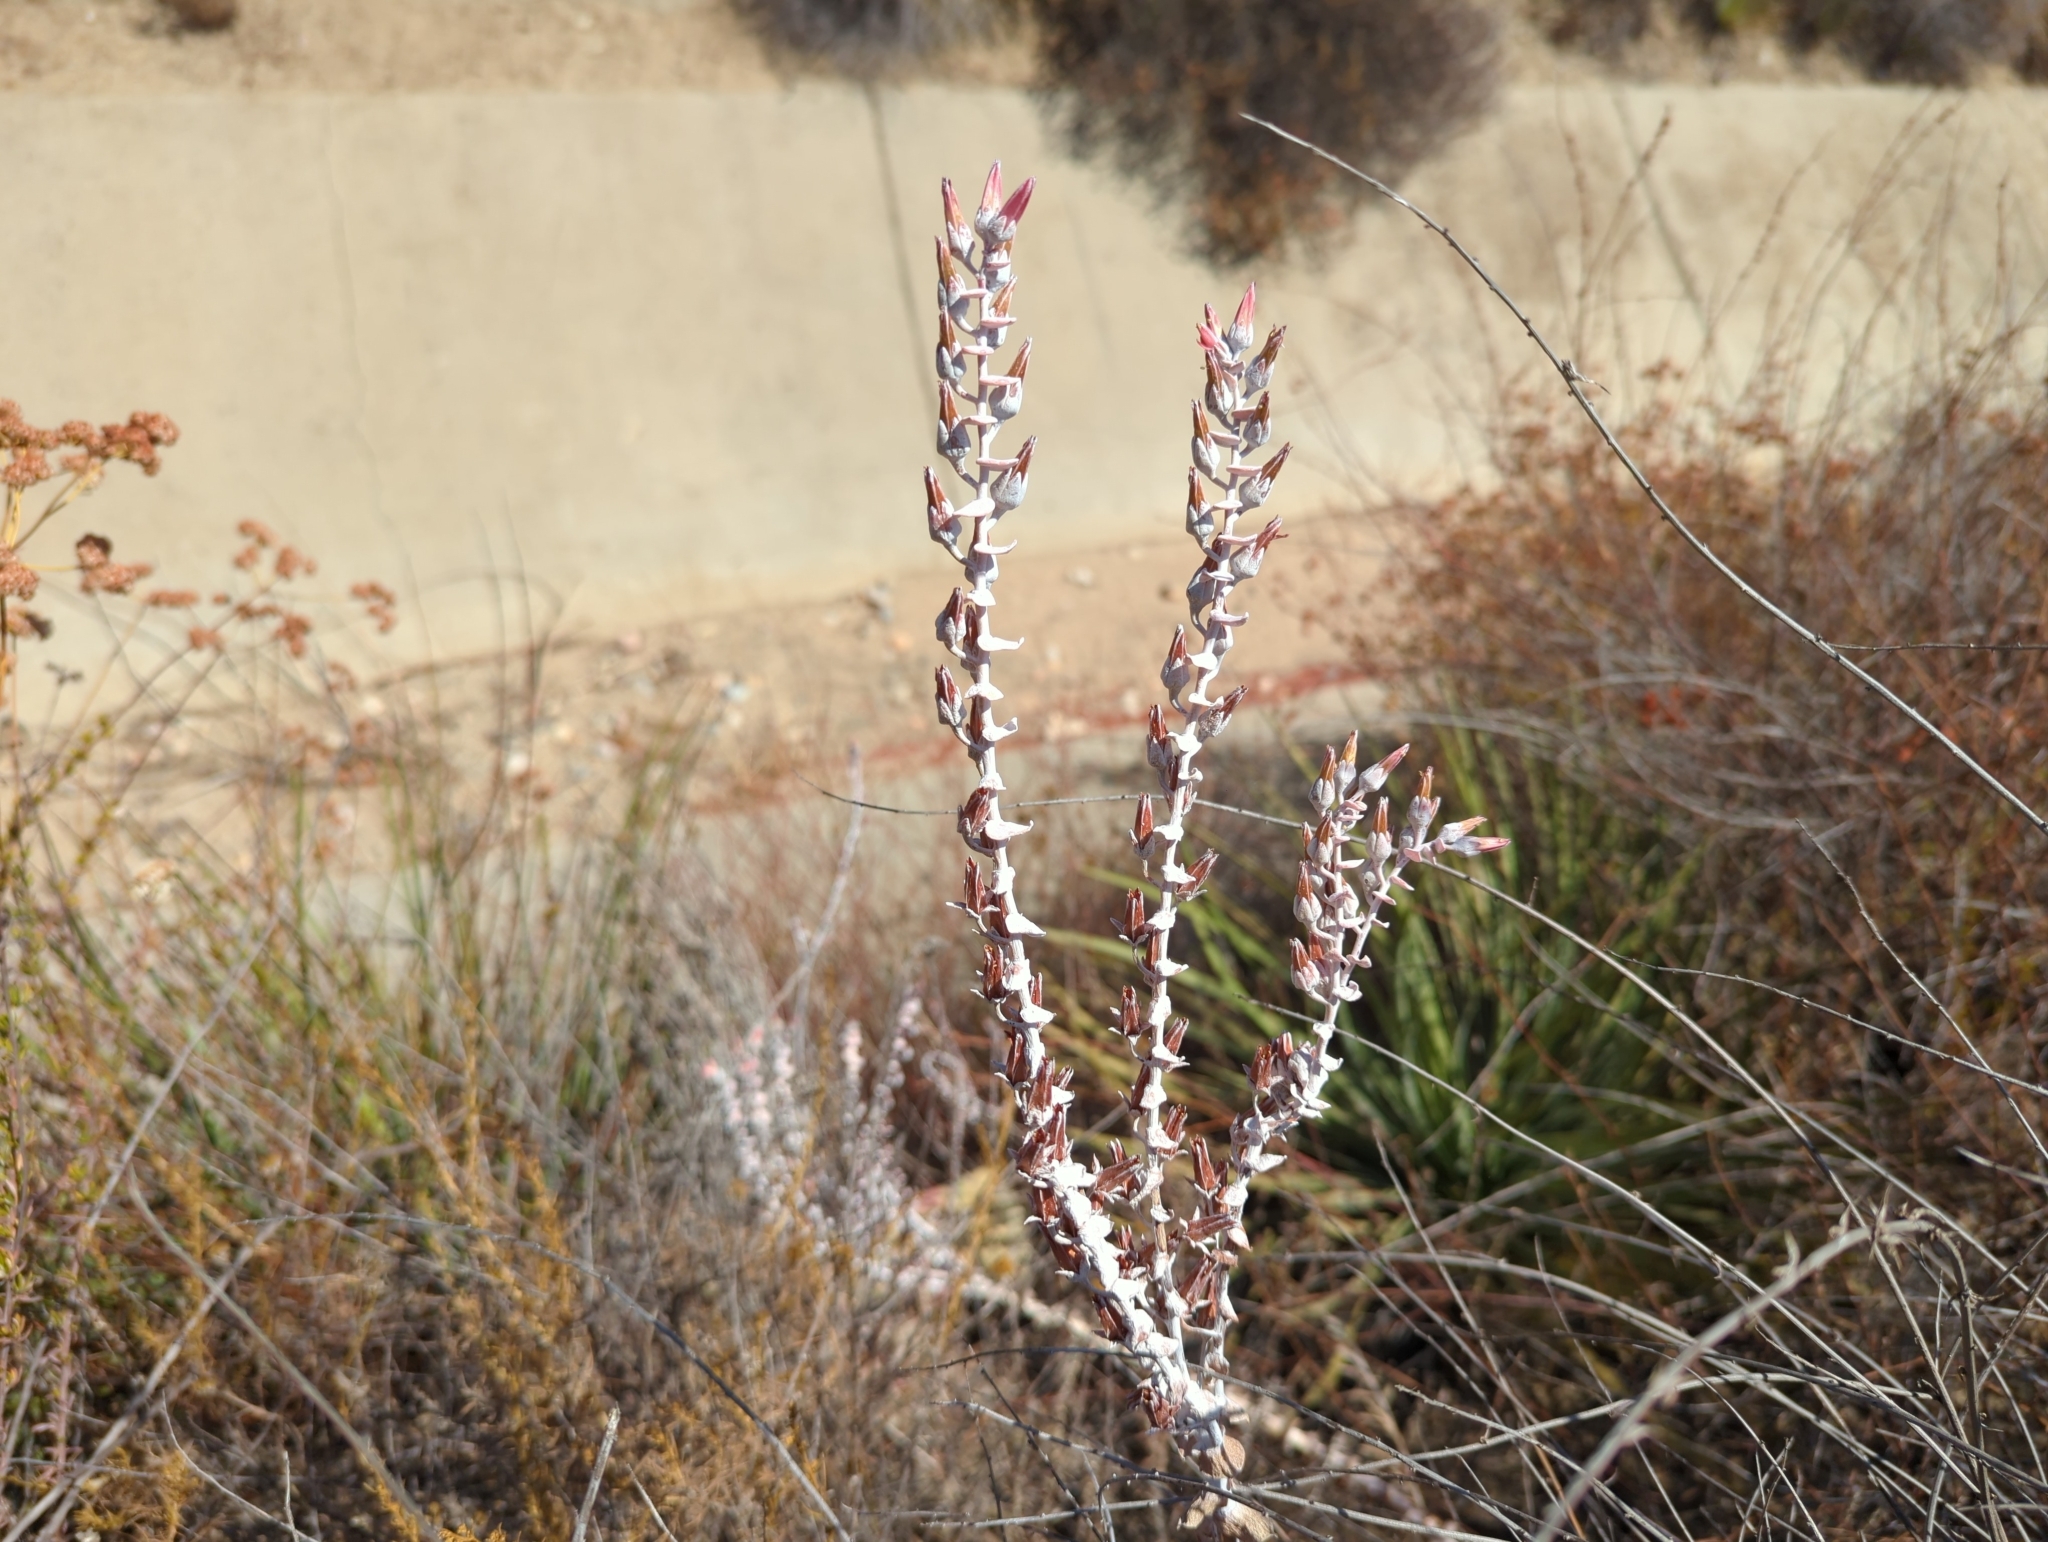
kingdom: Plantae
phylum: Tracheophyta
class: Magnoliopsida
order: Saxifragales
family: Crassulaceae
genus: Dudleya
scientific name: Dudleya pulverulenta
